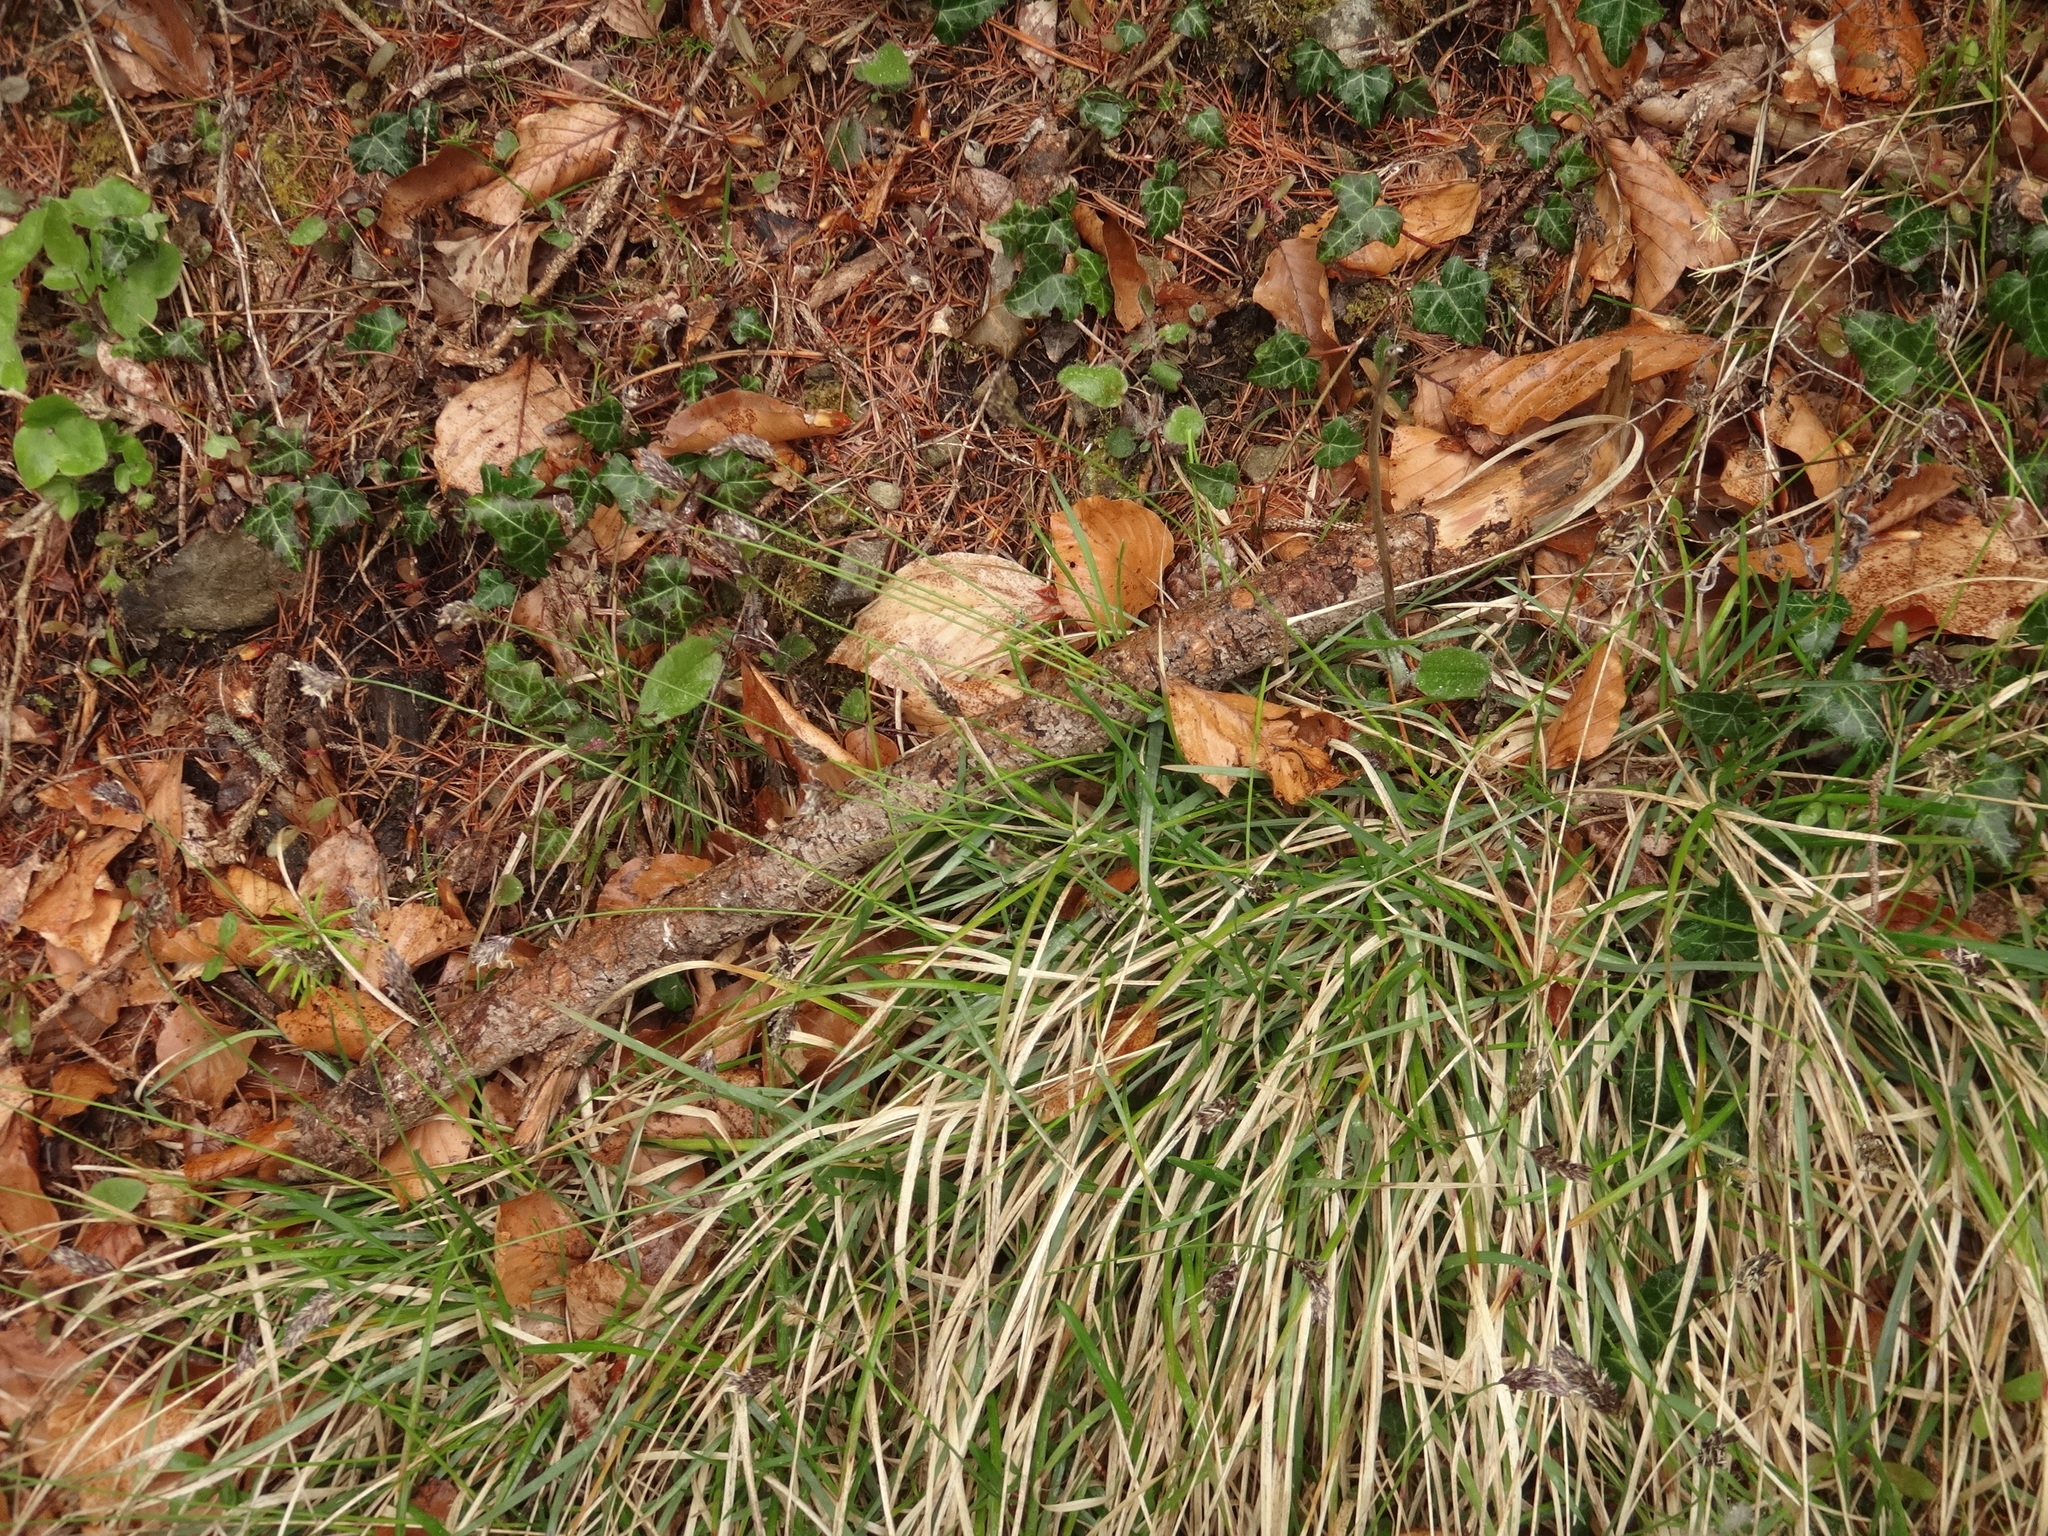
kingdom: Plantae
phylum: Tracheophyta
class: Liliopsida
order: Poales
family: Poaceae
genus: Sesleria
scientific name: Sesleria caerulea
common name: Blue moor-grass
